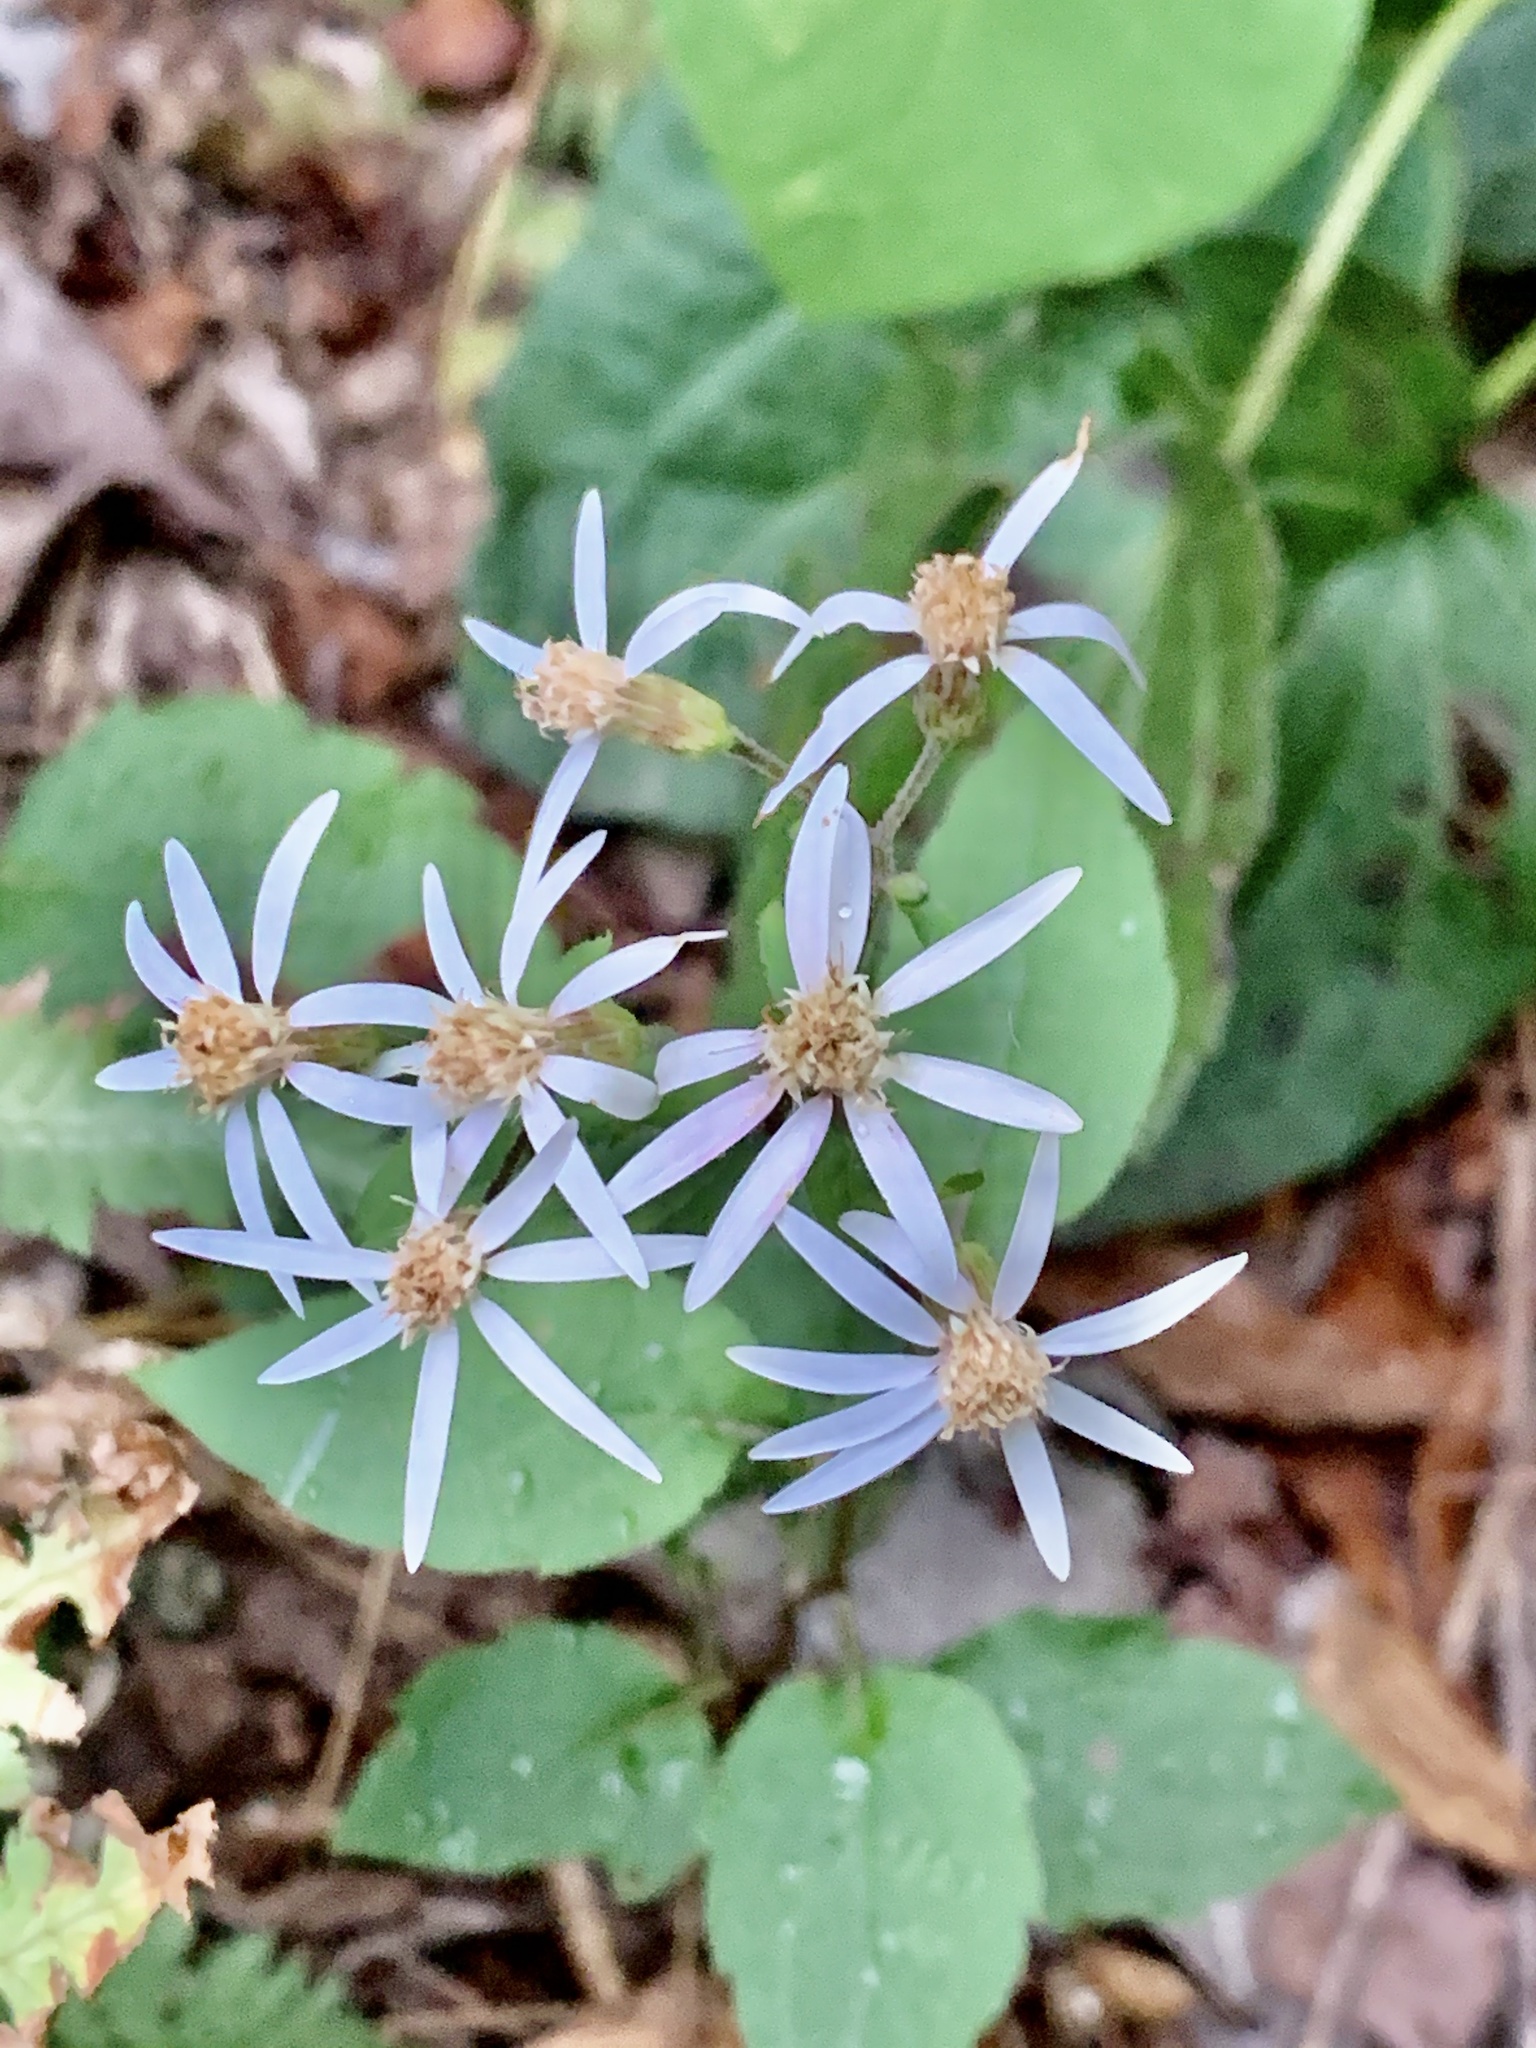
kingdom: Plantae
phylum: Tracheophyta
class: Magnoliopsida
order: Asterales
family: Asteraceae
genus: Eurybia
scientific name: Eurybia divaricata
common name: White wood aster
